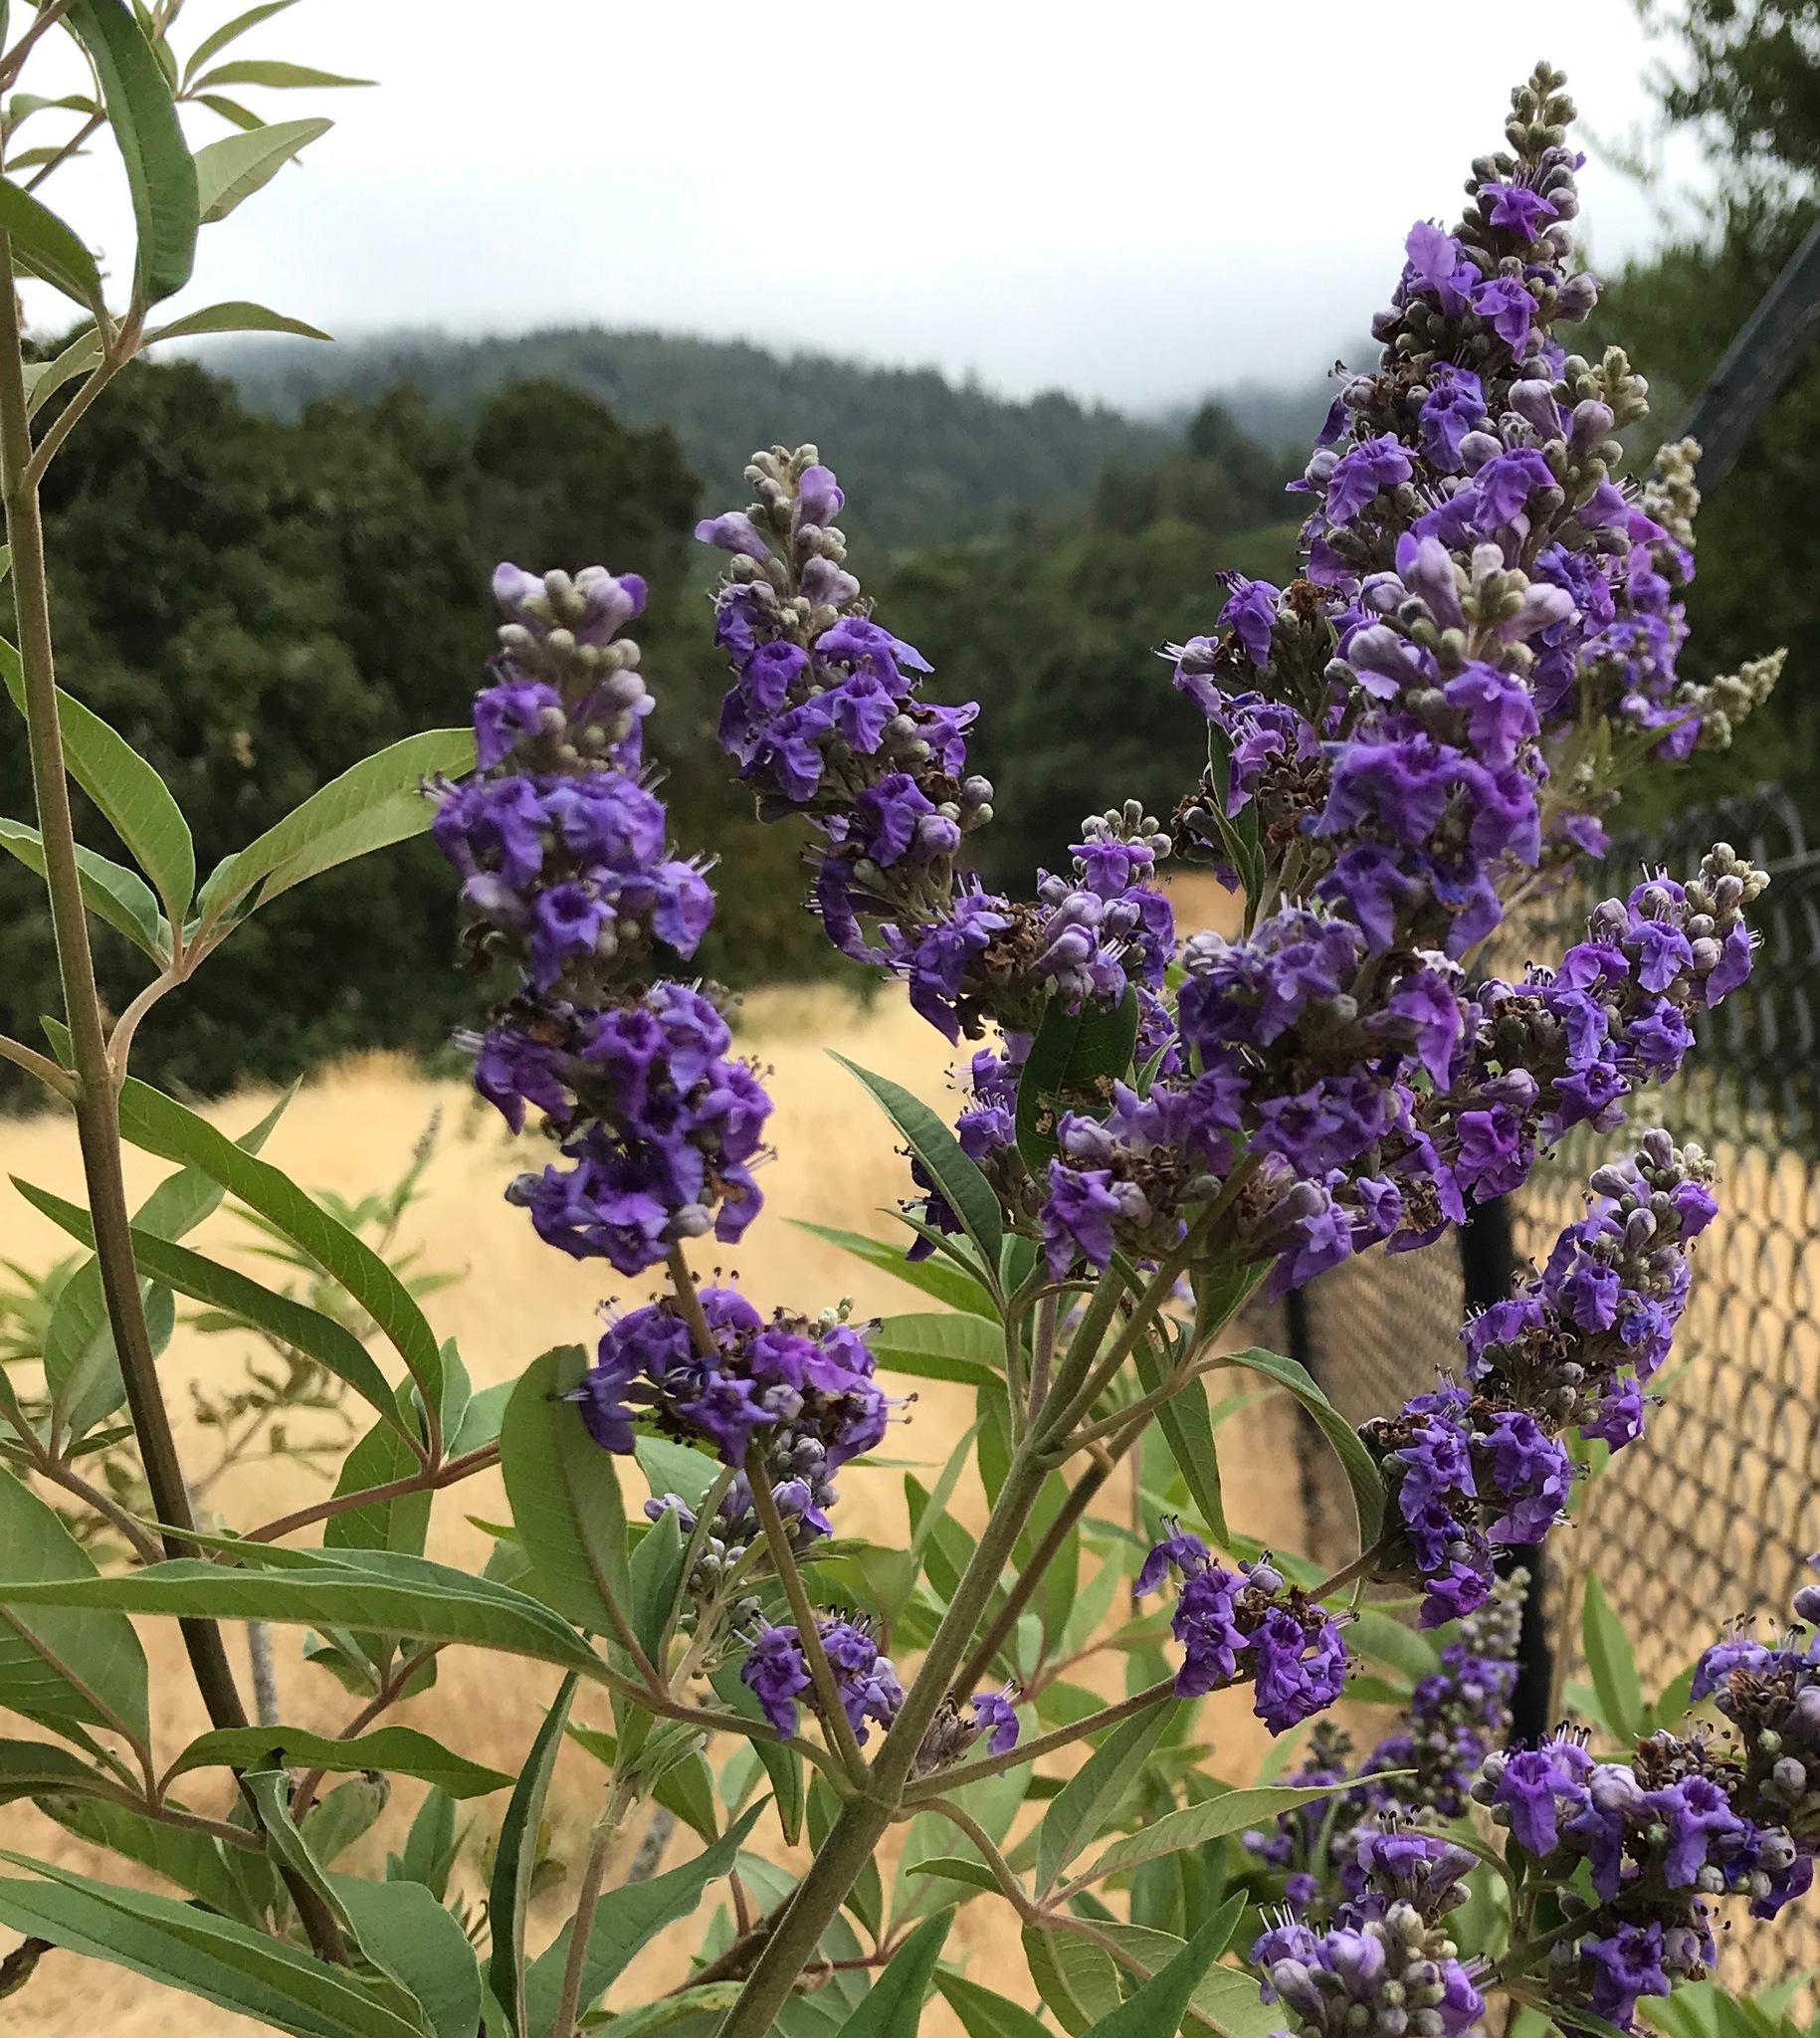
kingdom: Plantae
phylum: Tracheophyta
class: Magnoliopsida
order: Lamiales
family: Lamiaceae
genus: Vitex
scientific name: Vitex agnus-castus
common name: Chasteberry
